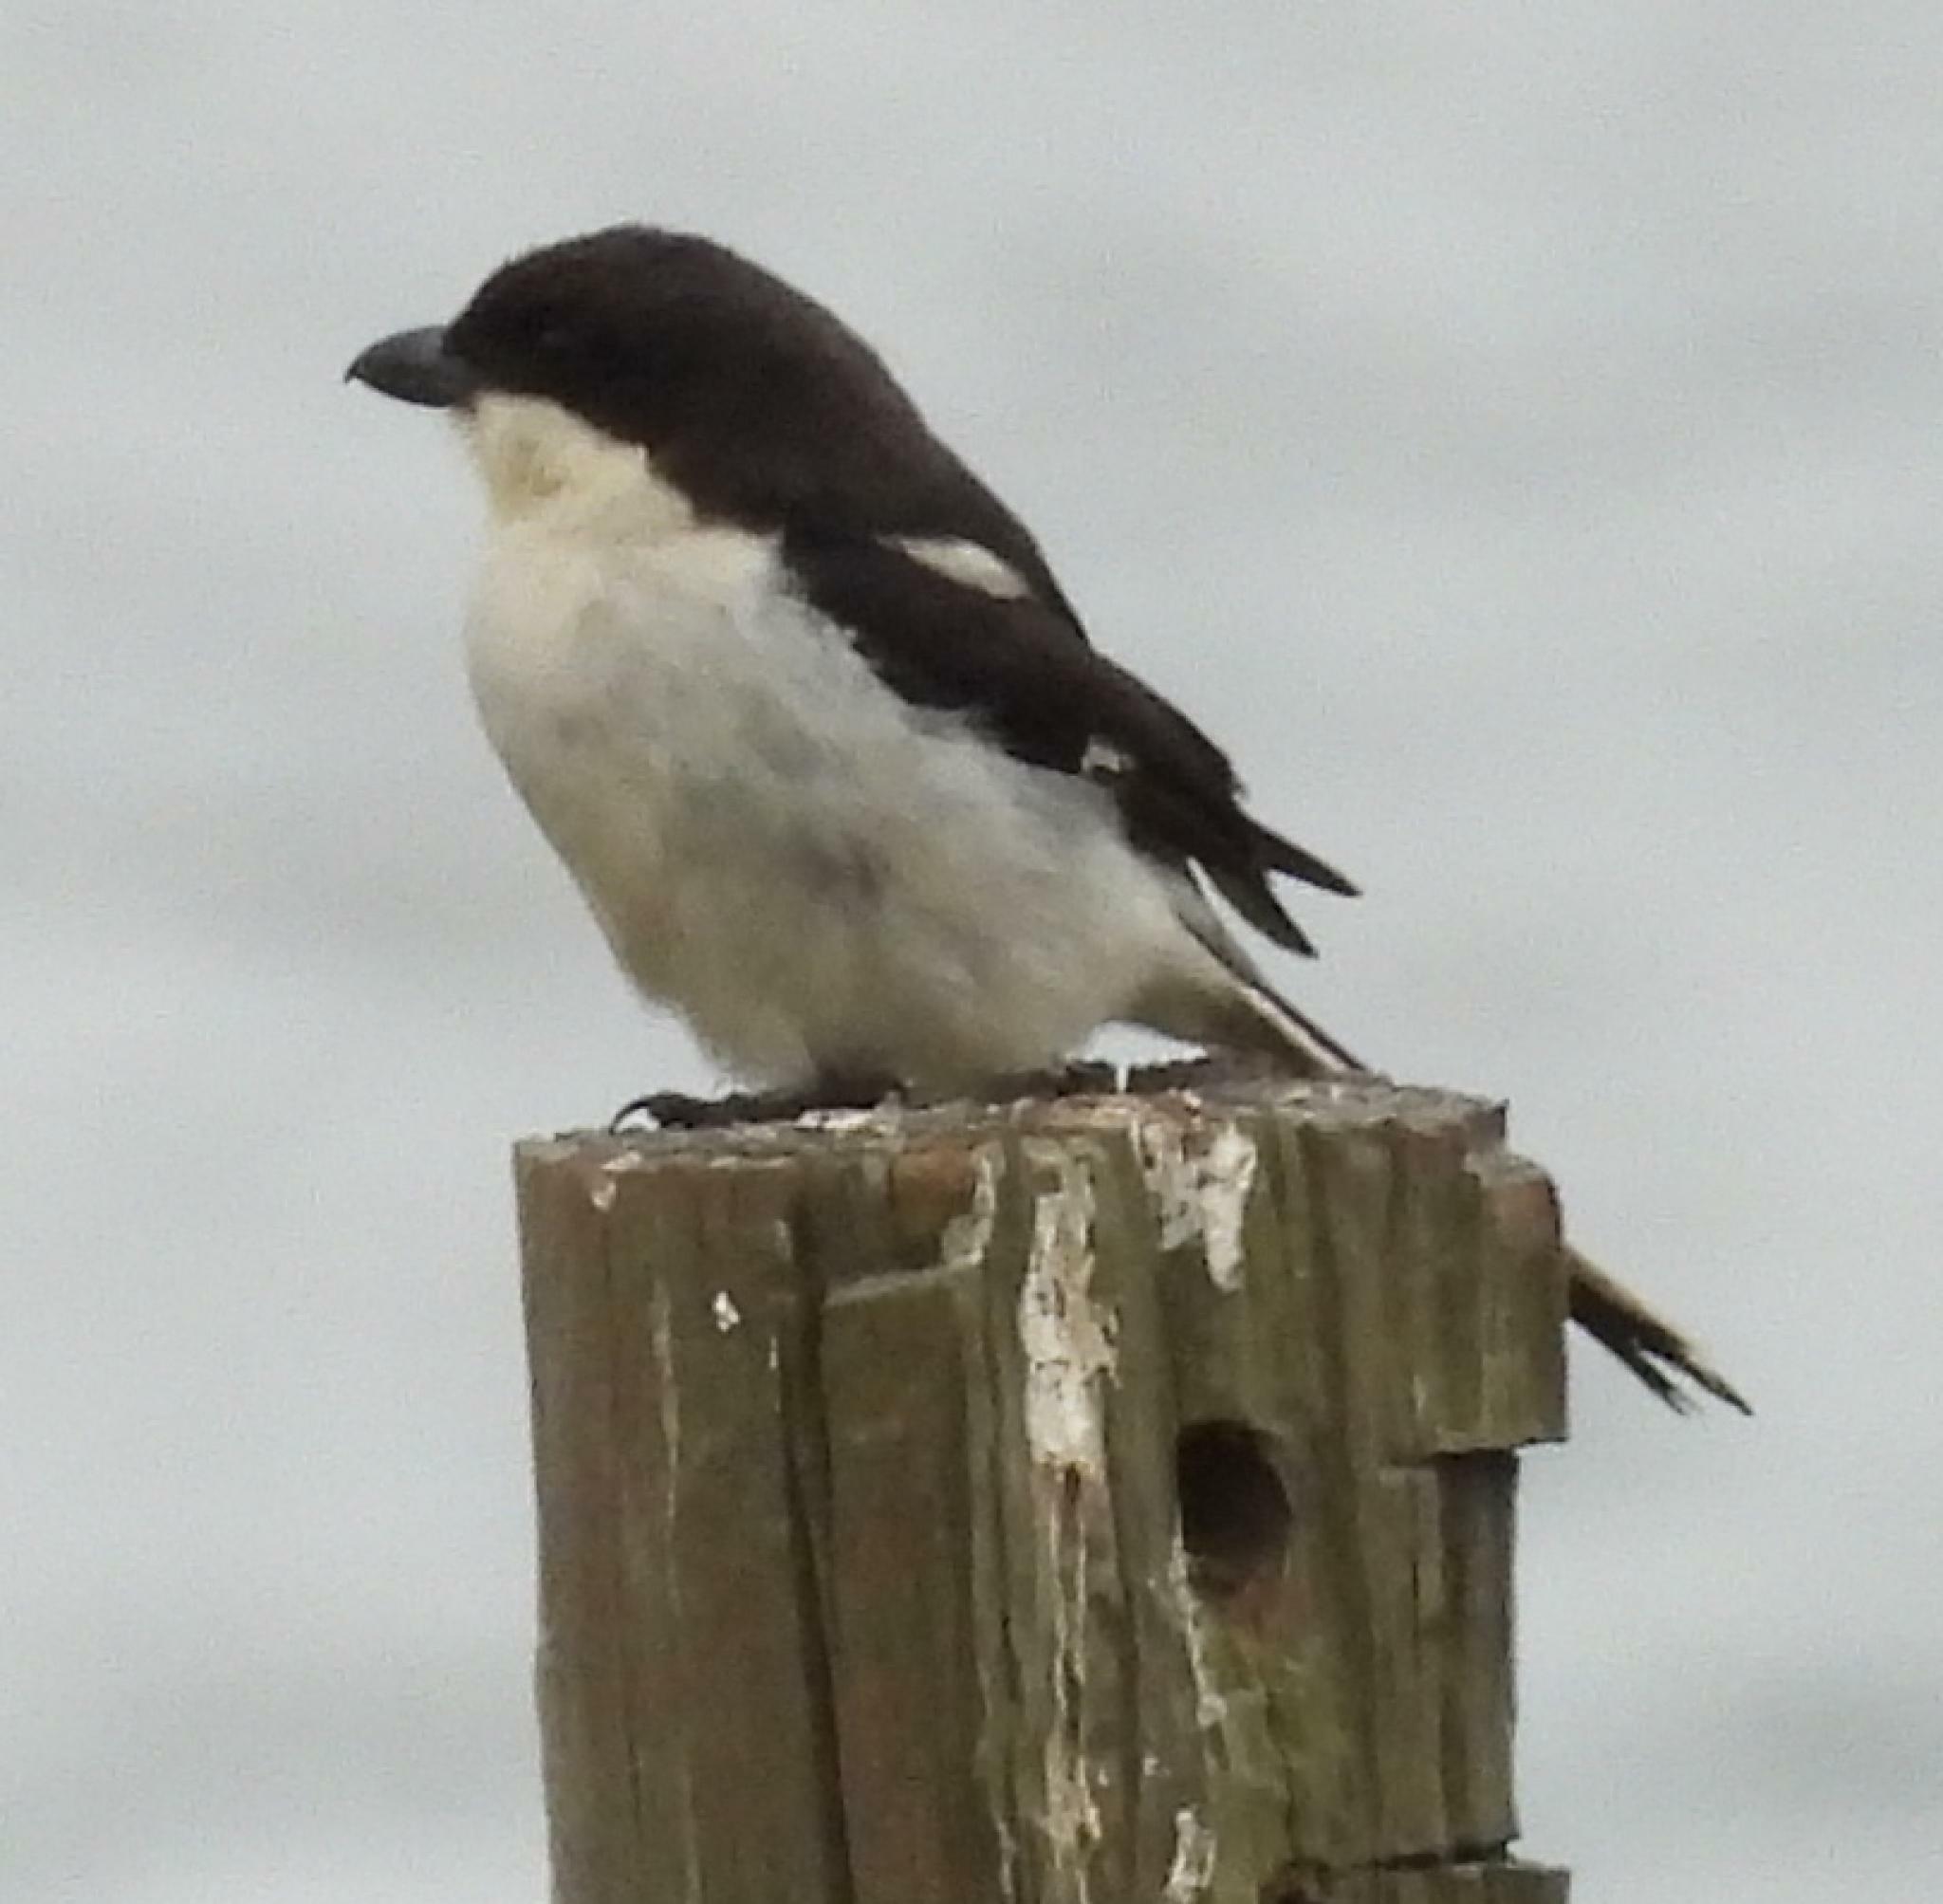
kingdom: Animalia
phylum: Chordata
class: Aves
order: Passeriformes
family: Laniidae
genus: Lanius
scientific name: Lanius collaris
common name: Southern fiscal
